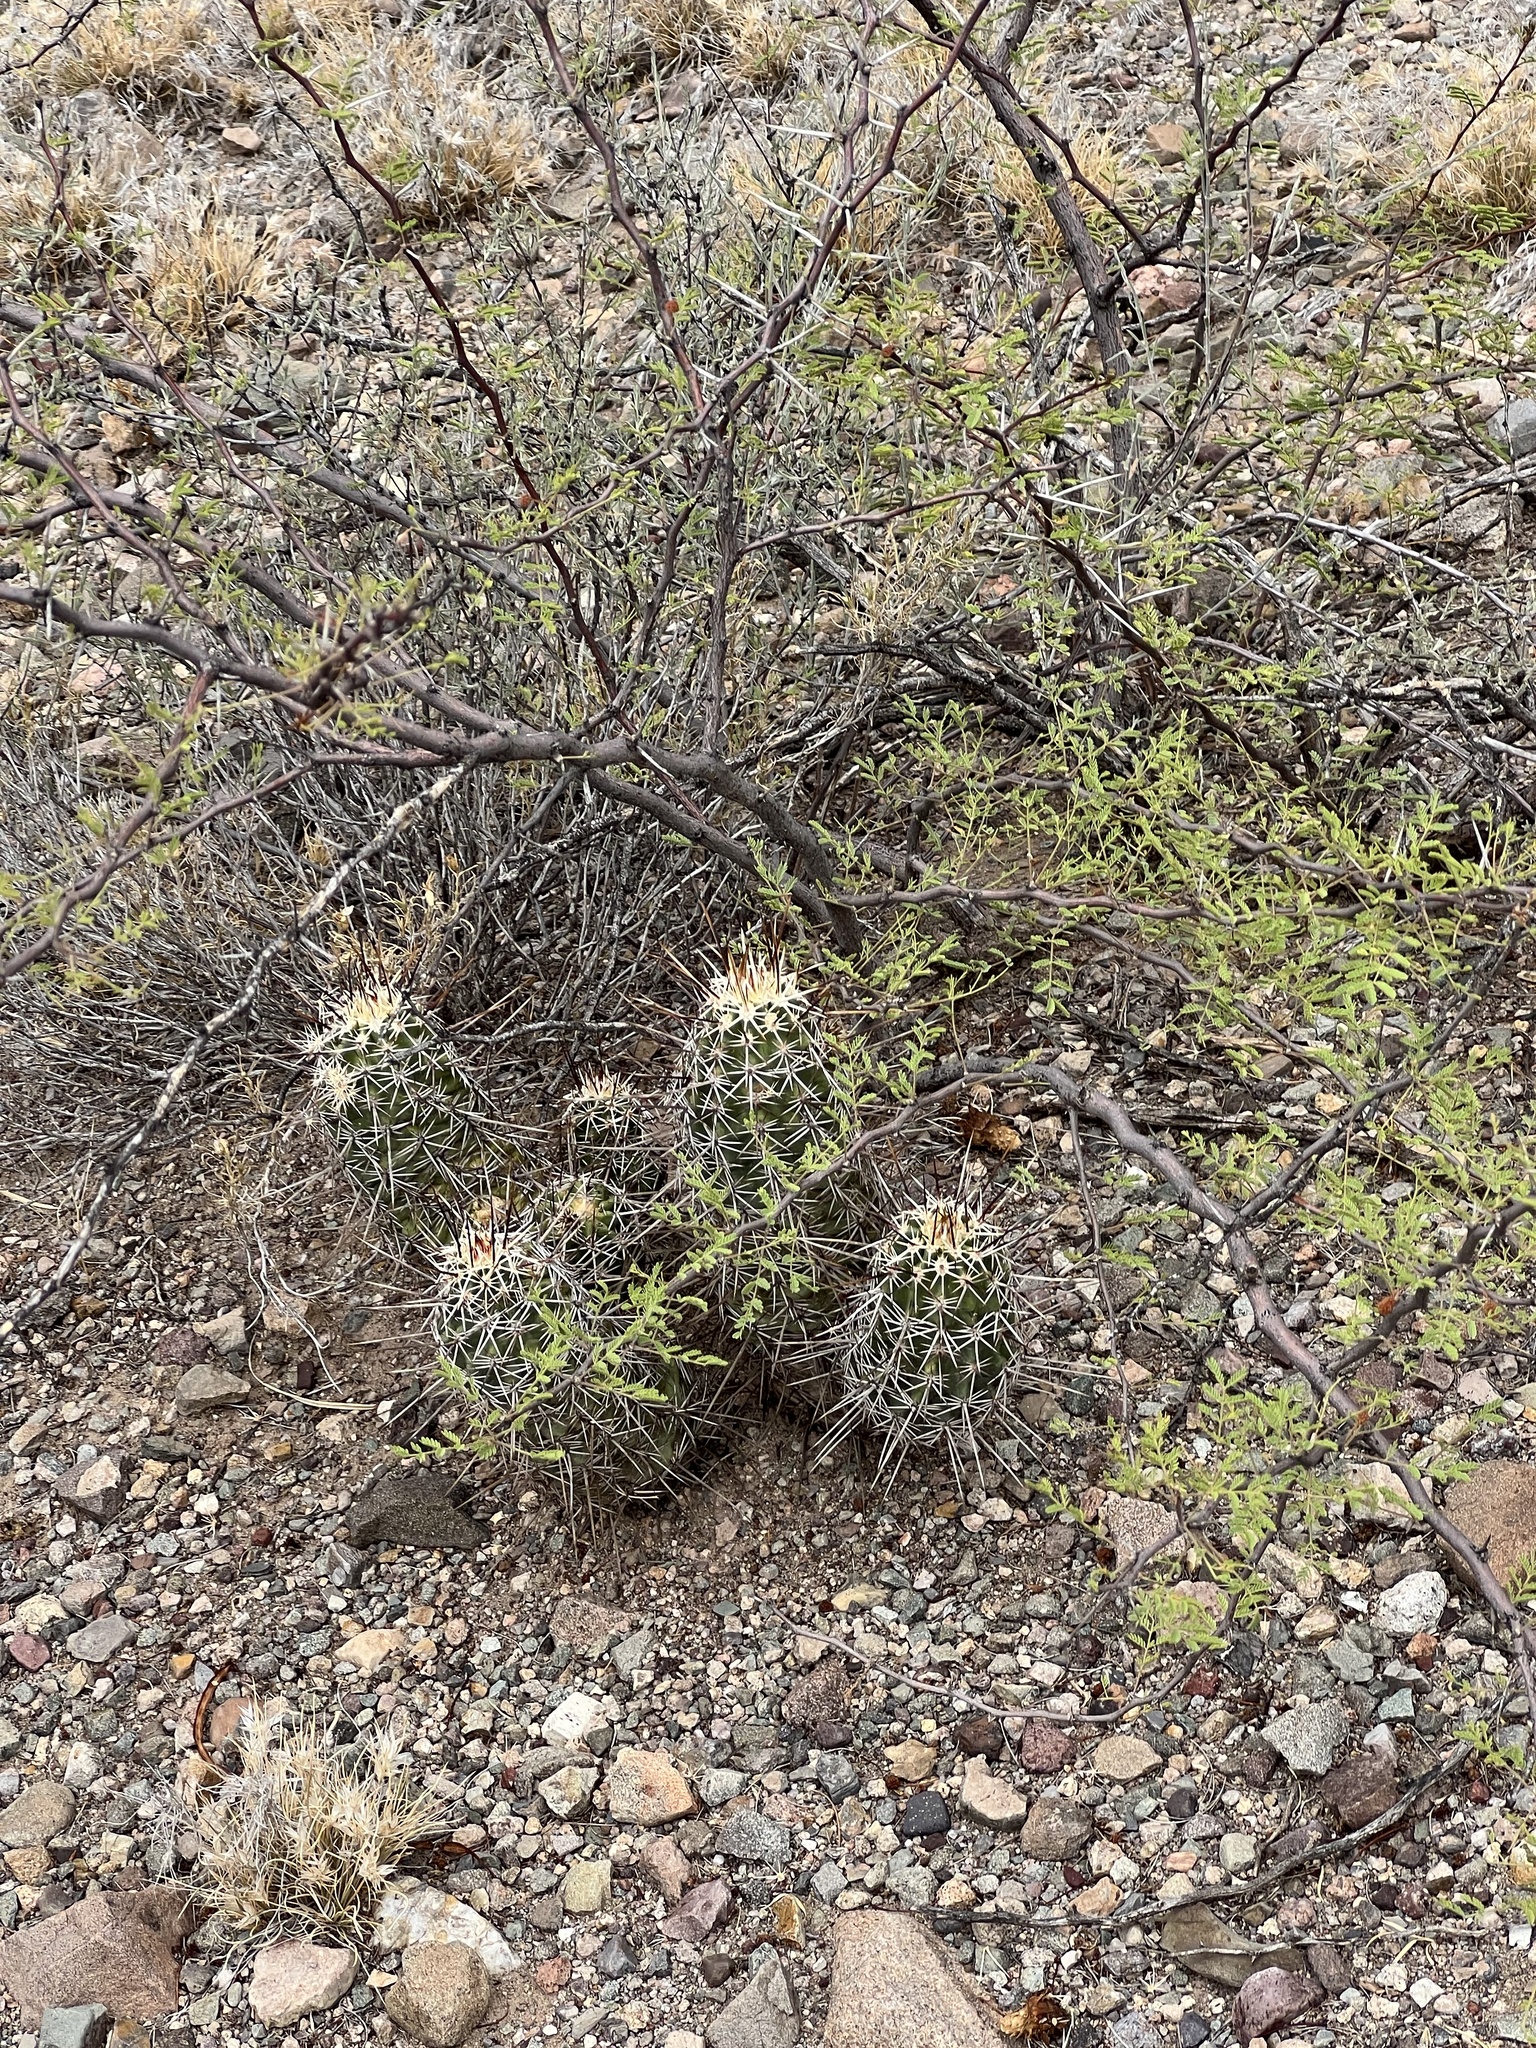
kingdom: Plantae
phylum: Tracheophyta
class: Magnoliopsida
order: Caryophyllales
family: Cactaceae
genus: Echinocereus
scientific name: Echinocereus fasciculatus
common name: Bundle hedgehog
